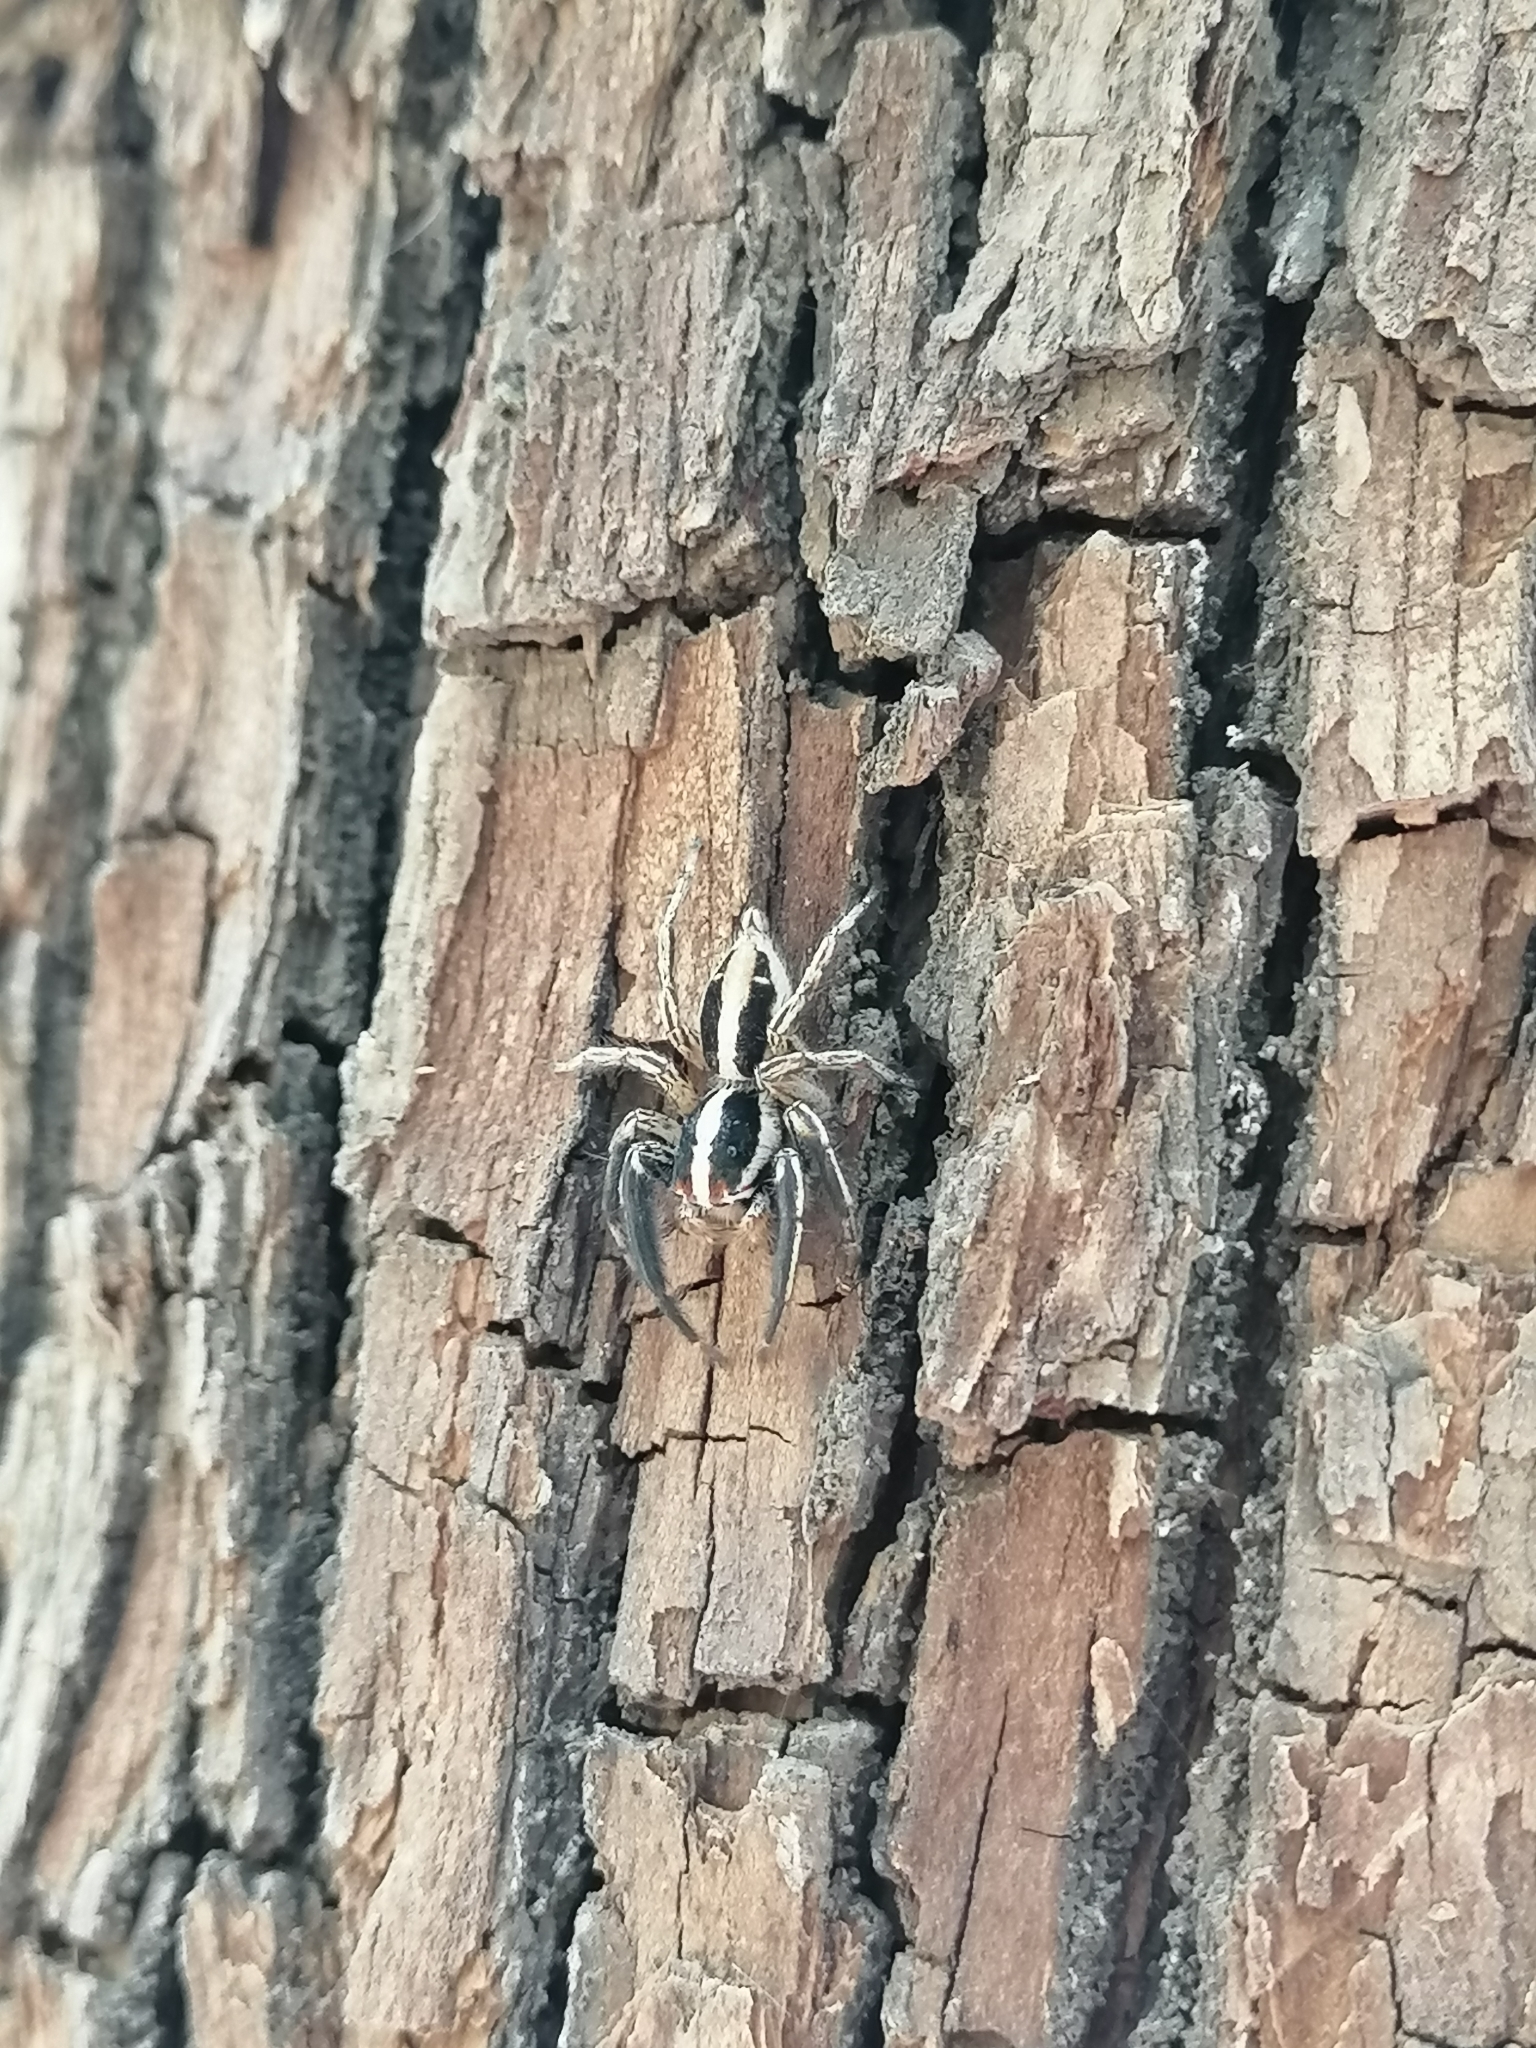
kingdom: Animalia
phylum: Arthropoda
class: Arachnida
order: Araneae
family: Salticidae
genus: Plexippus
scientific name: Plexippus paykulli
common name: Pantropical jumper
